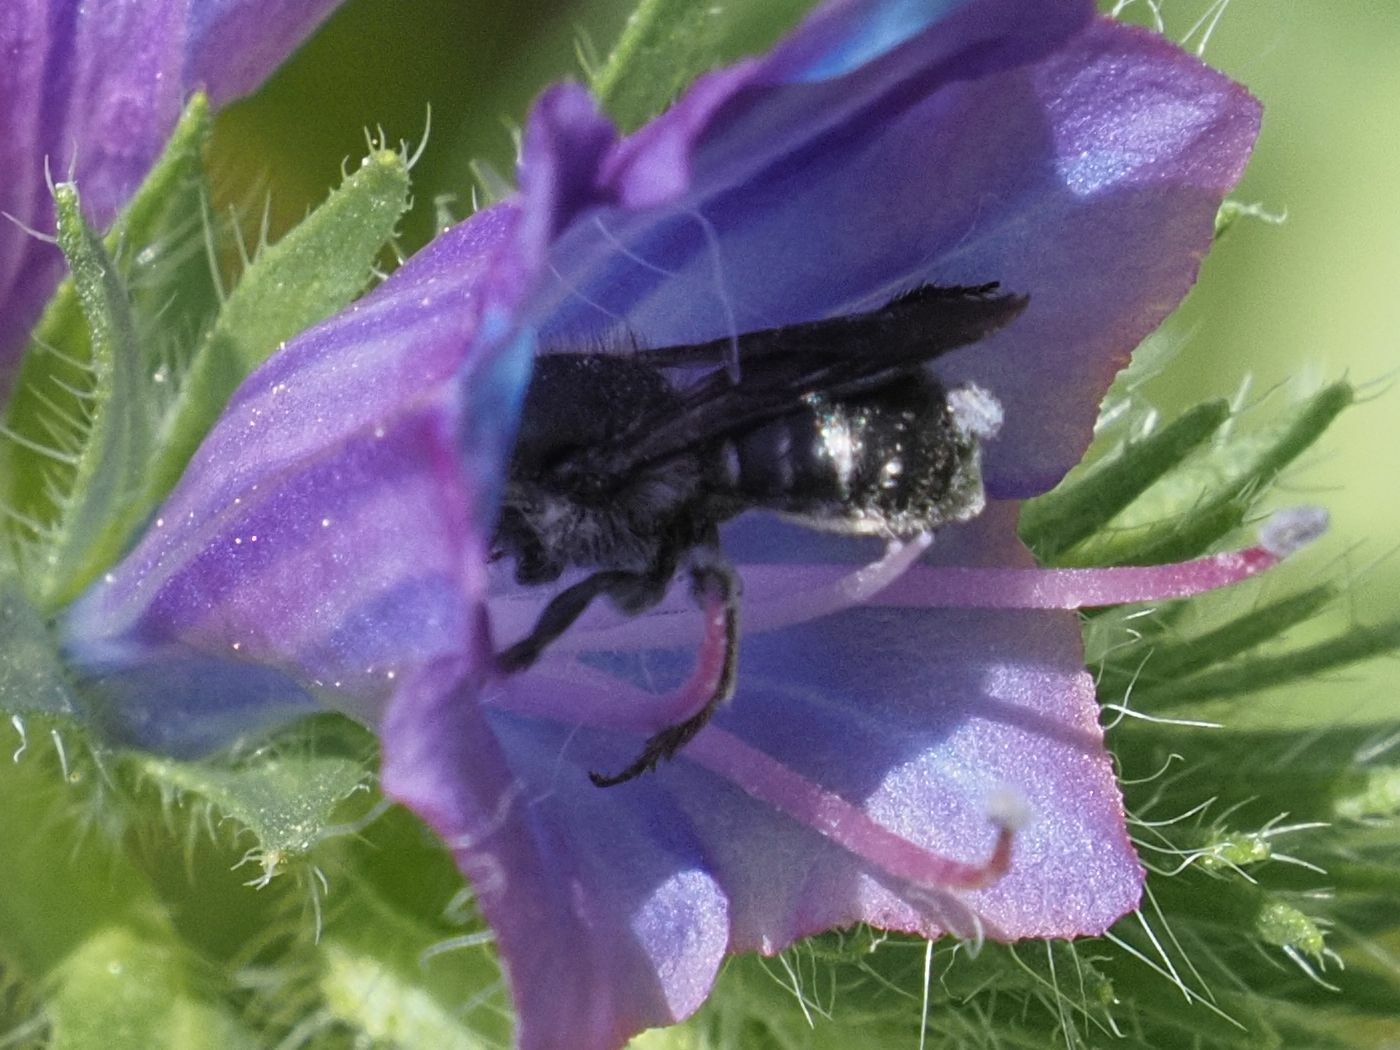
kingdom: Animalia
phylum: Arthropoda
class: Insecta
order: Hymenoptera
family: Megachilidae
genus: Osmia
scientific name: Osmia submicans
